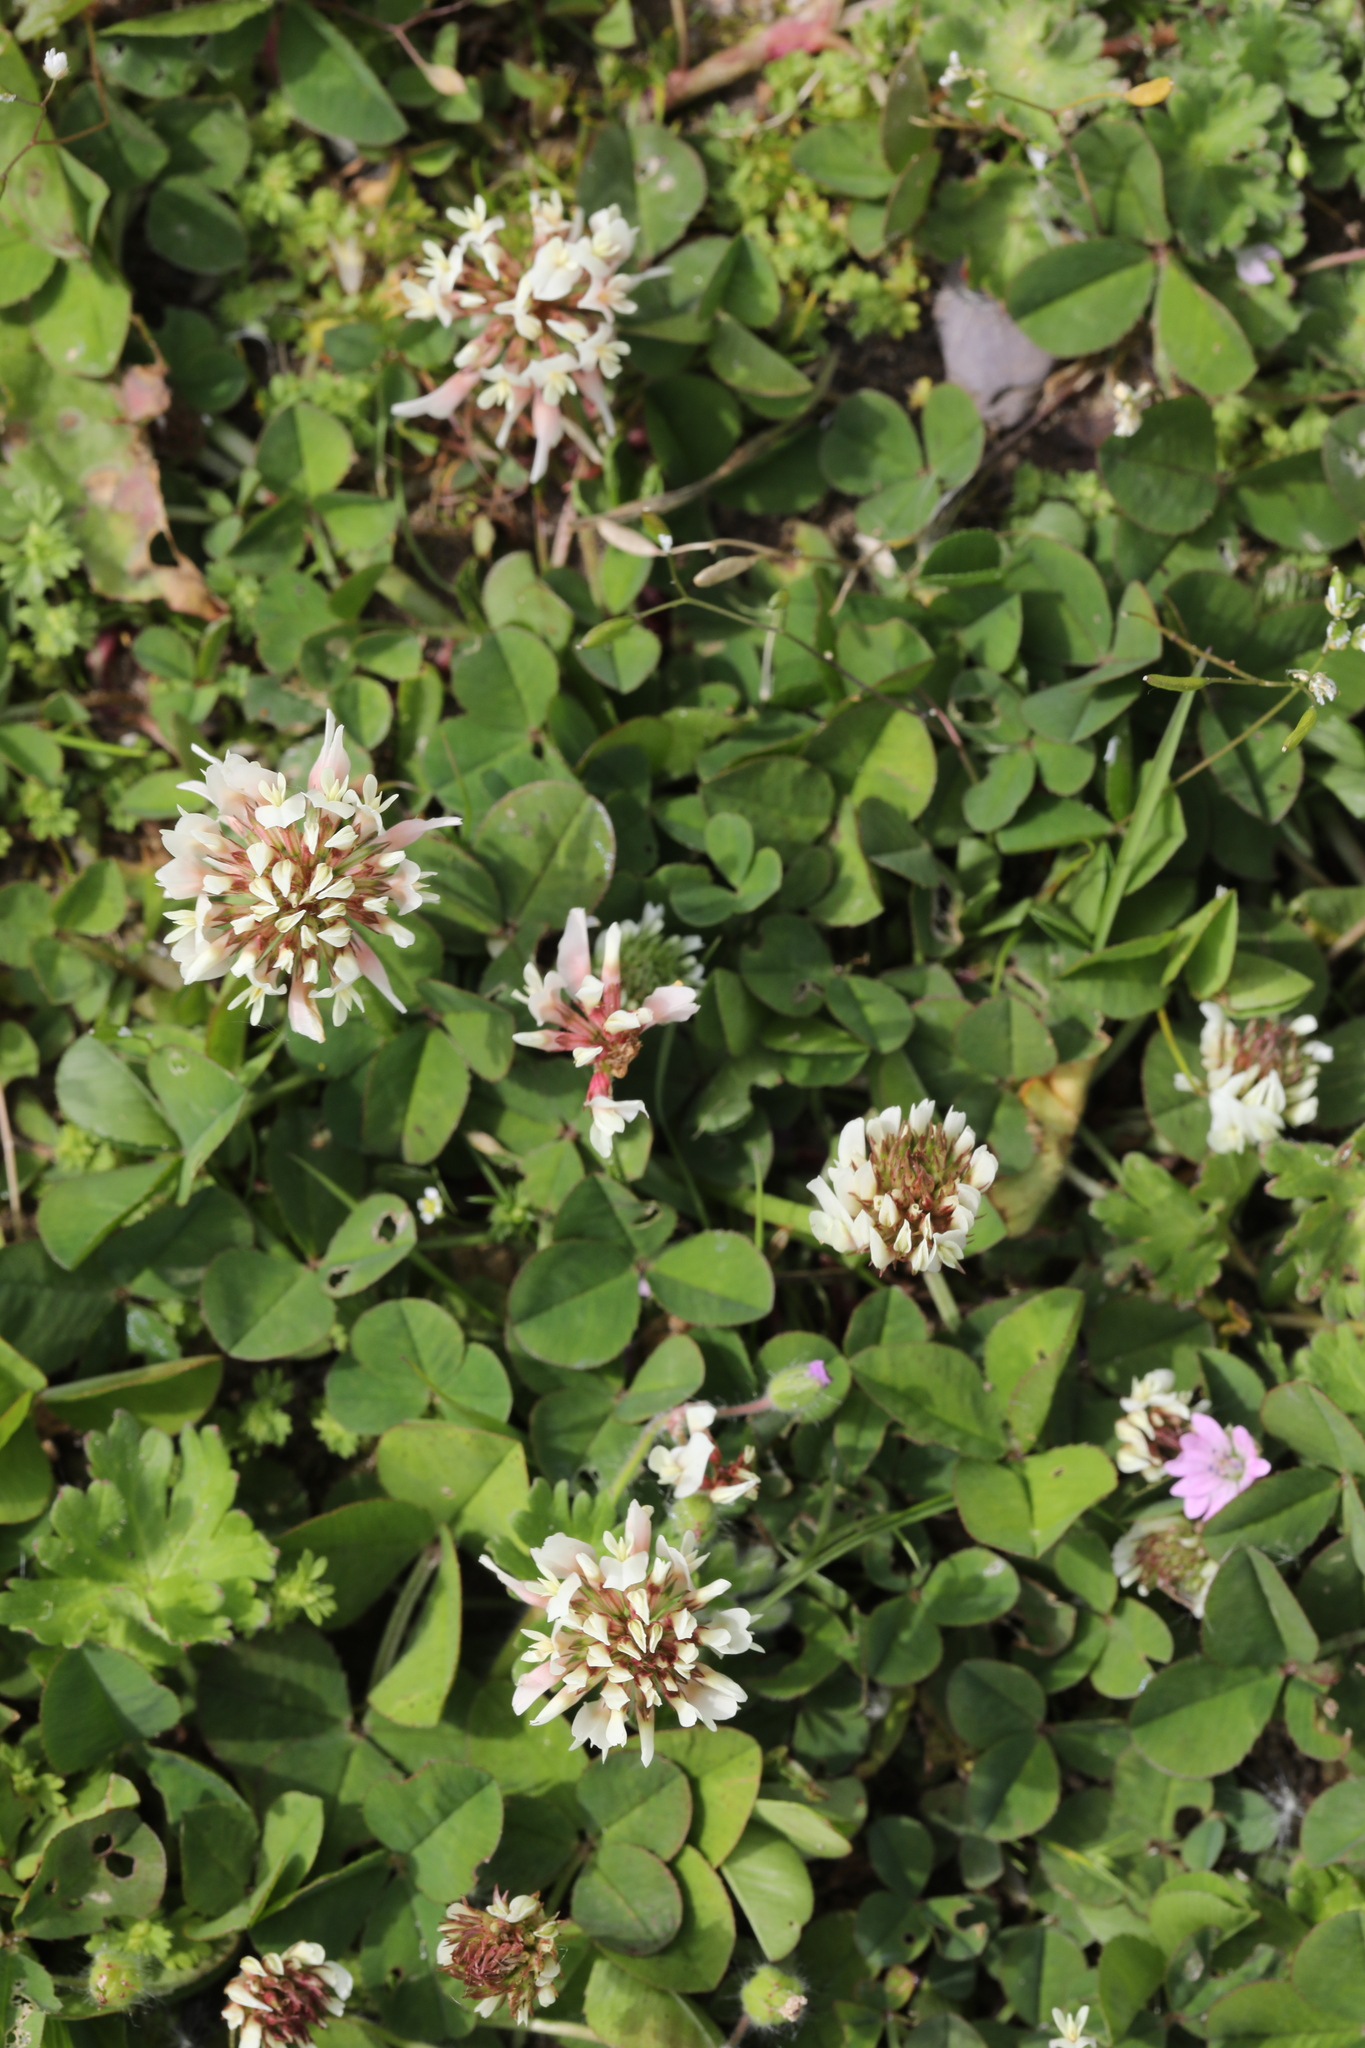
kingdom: Plantae
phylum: Tracheophyta
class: Magnoliopsida
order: Fabales
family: Fabaceae
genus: Trifolium
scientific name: Trifolium repens
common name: White clover
